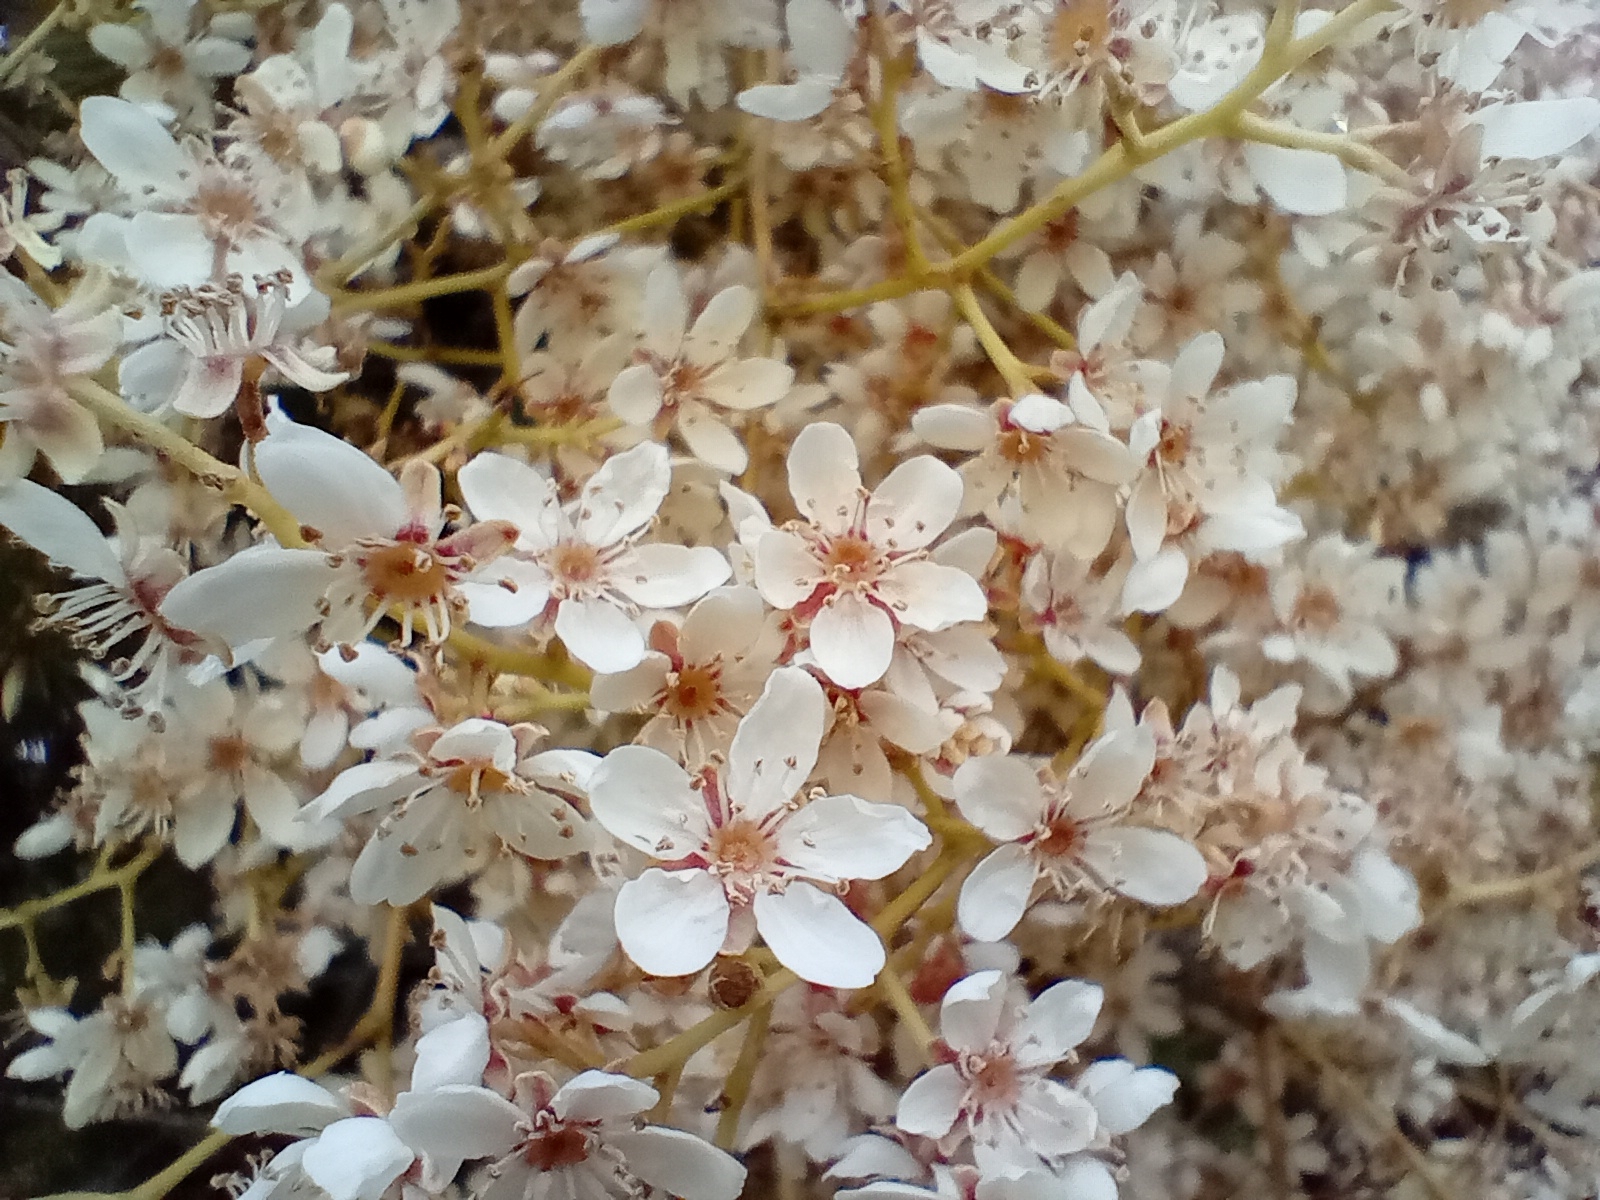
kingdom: Plantae
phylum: Tracheophyta
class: Magnoliopsida
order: Rosales
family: Rosaceae
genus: Rubus
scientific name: Rubus cissoides
